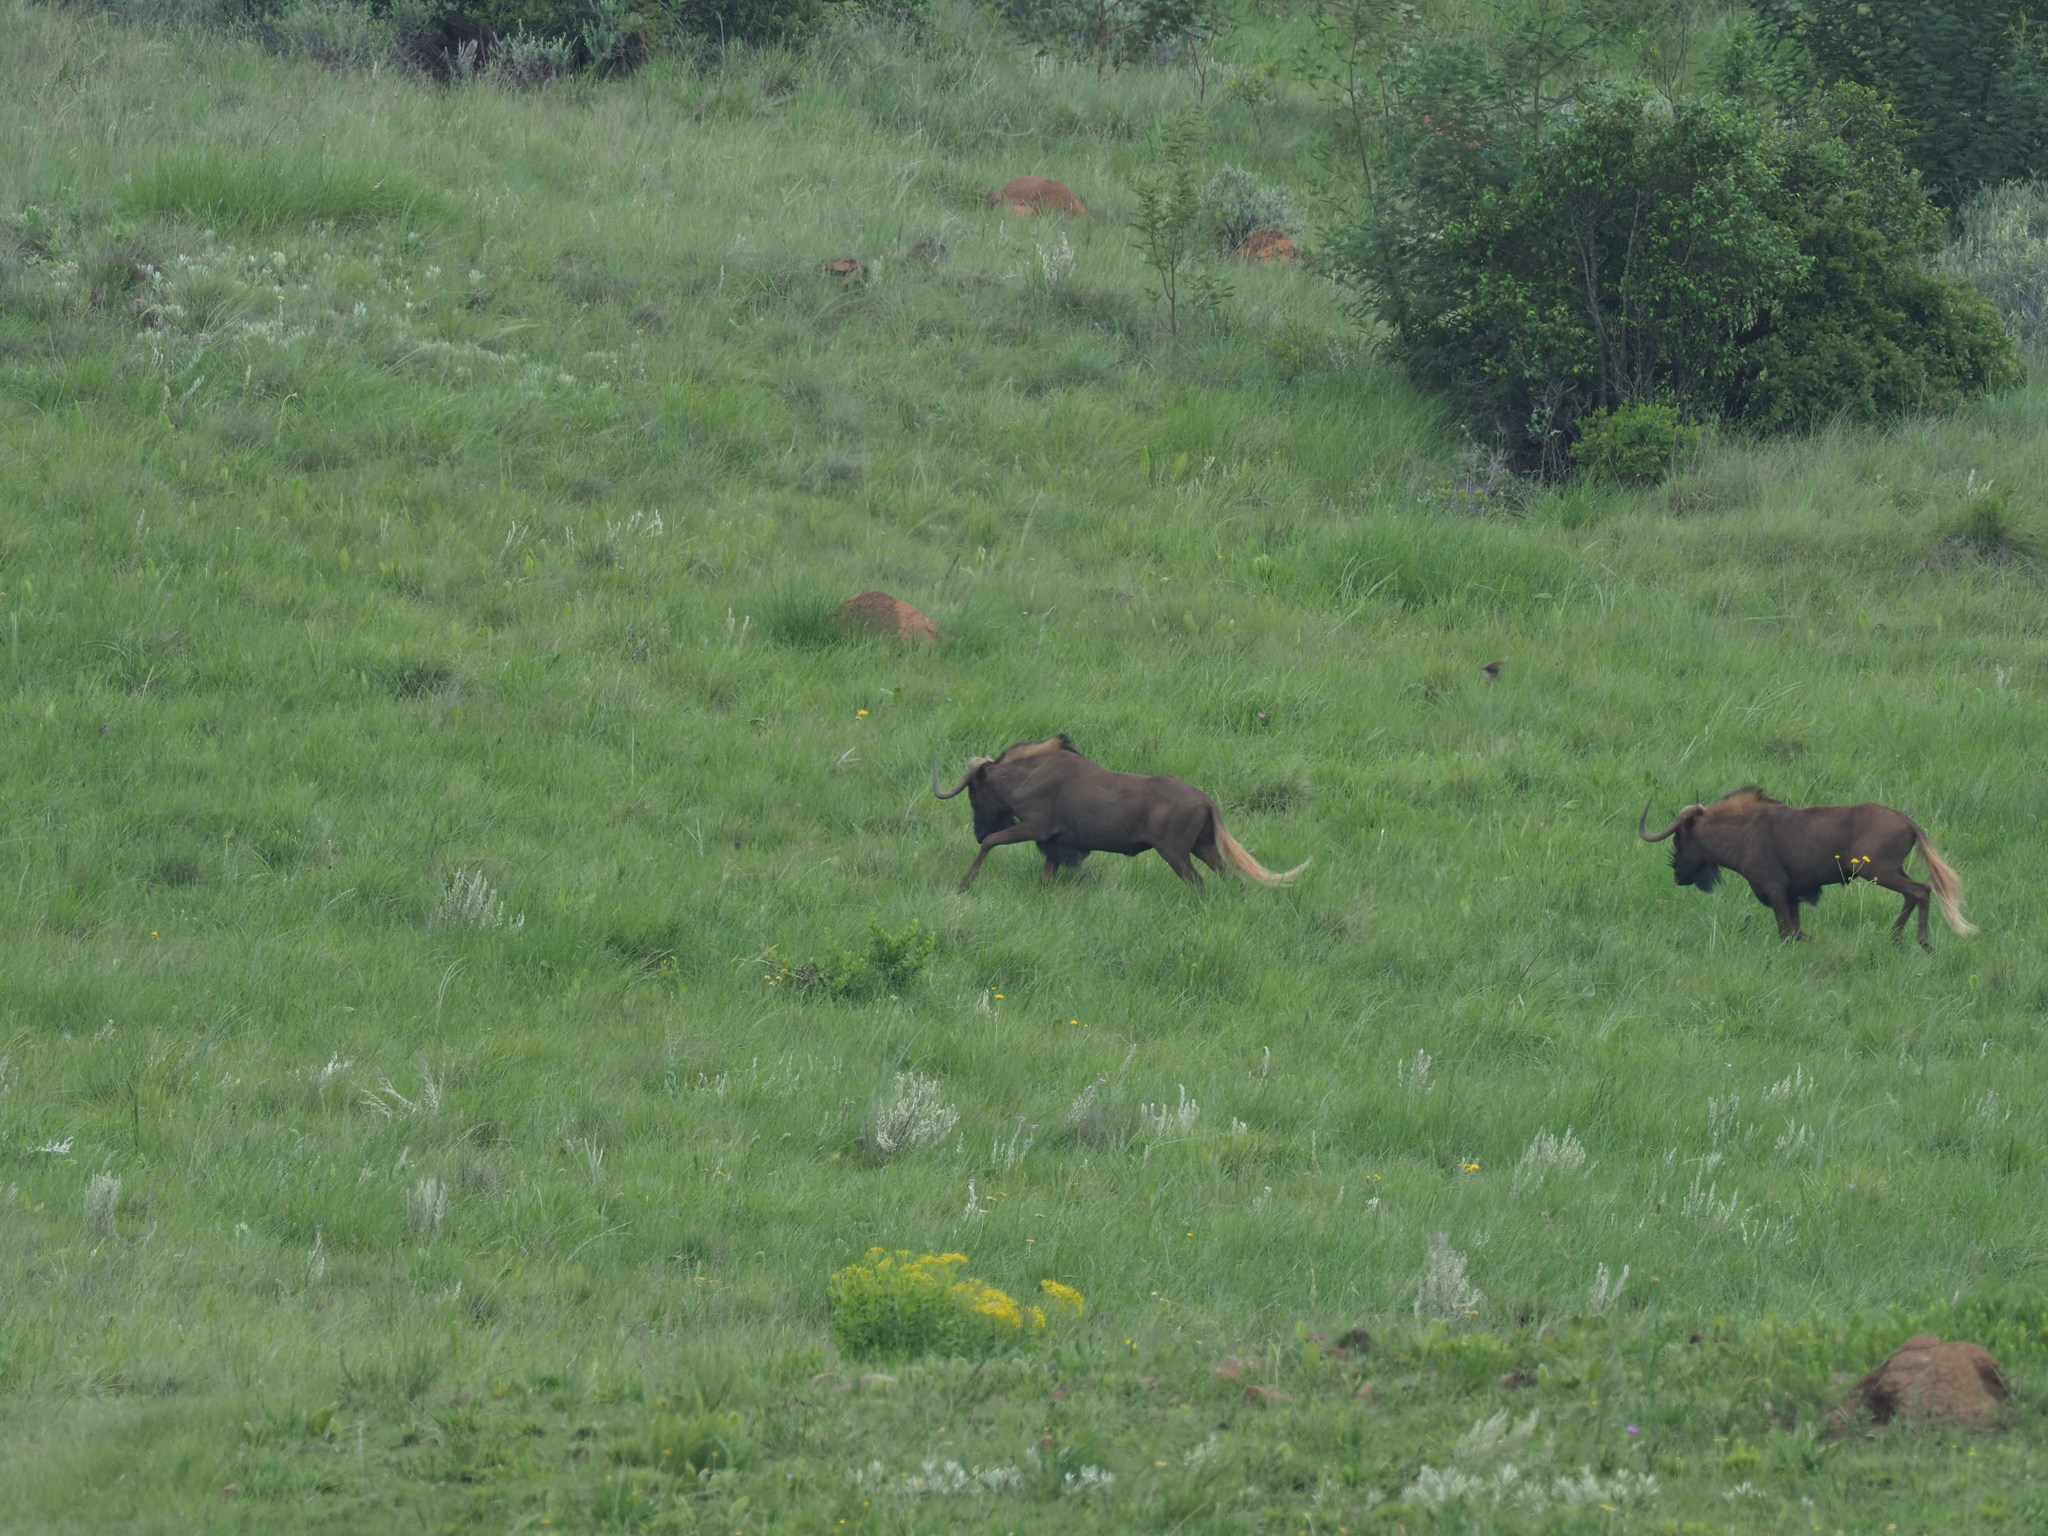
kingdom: Animalia
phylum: Chordata
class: Mammalia
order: Artiodactyla
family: Bovidae
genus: Connochaetes
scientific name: Connochaetes gnou
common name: Black wildebeest
